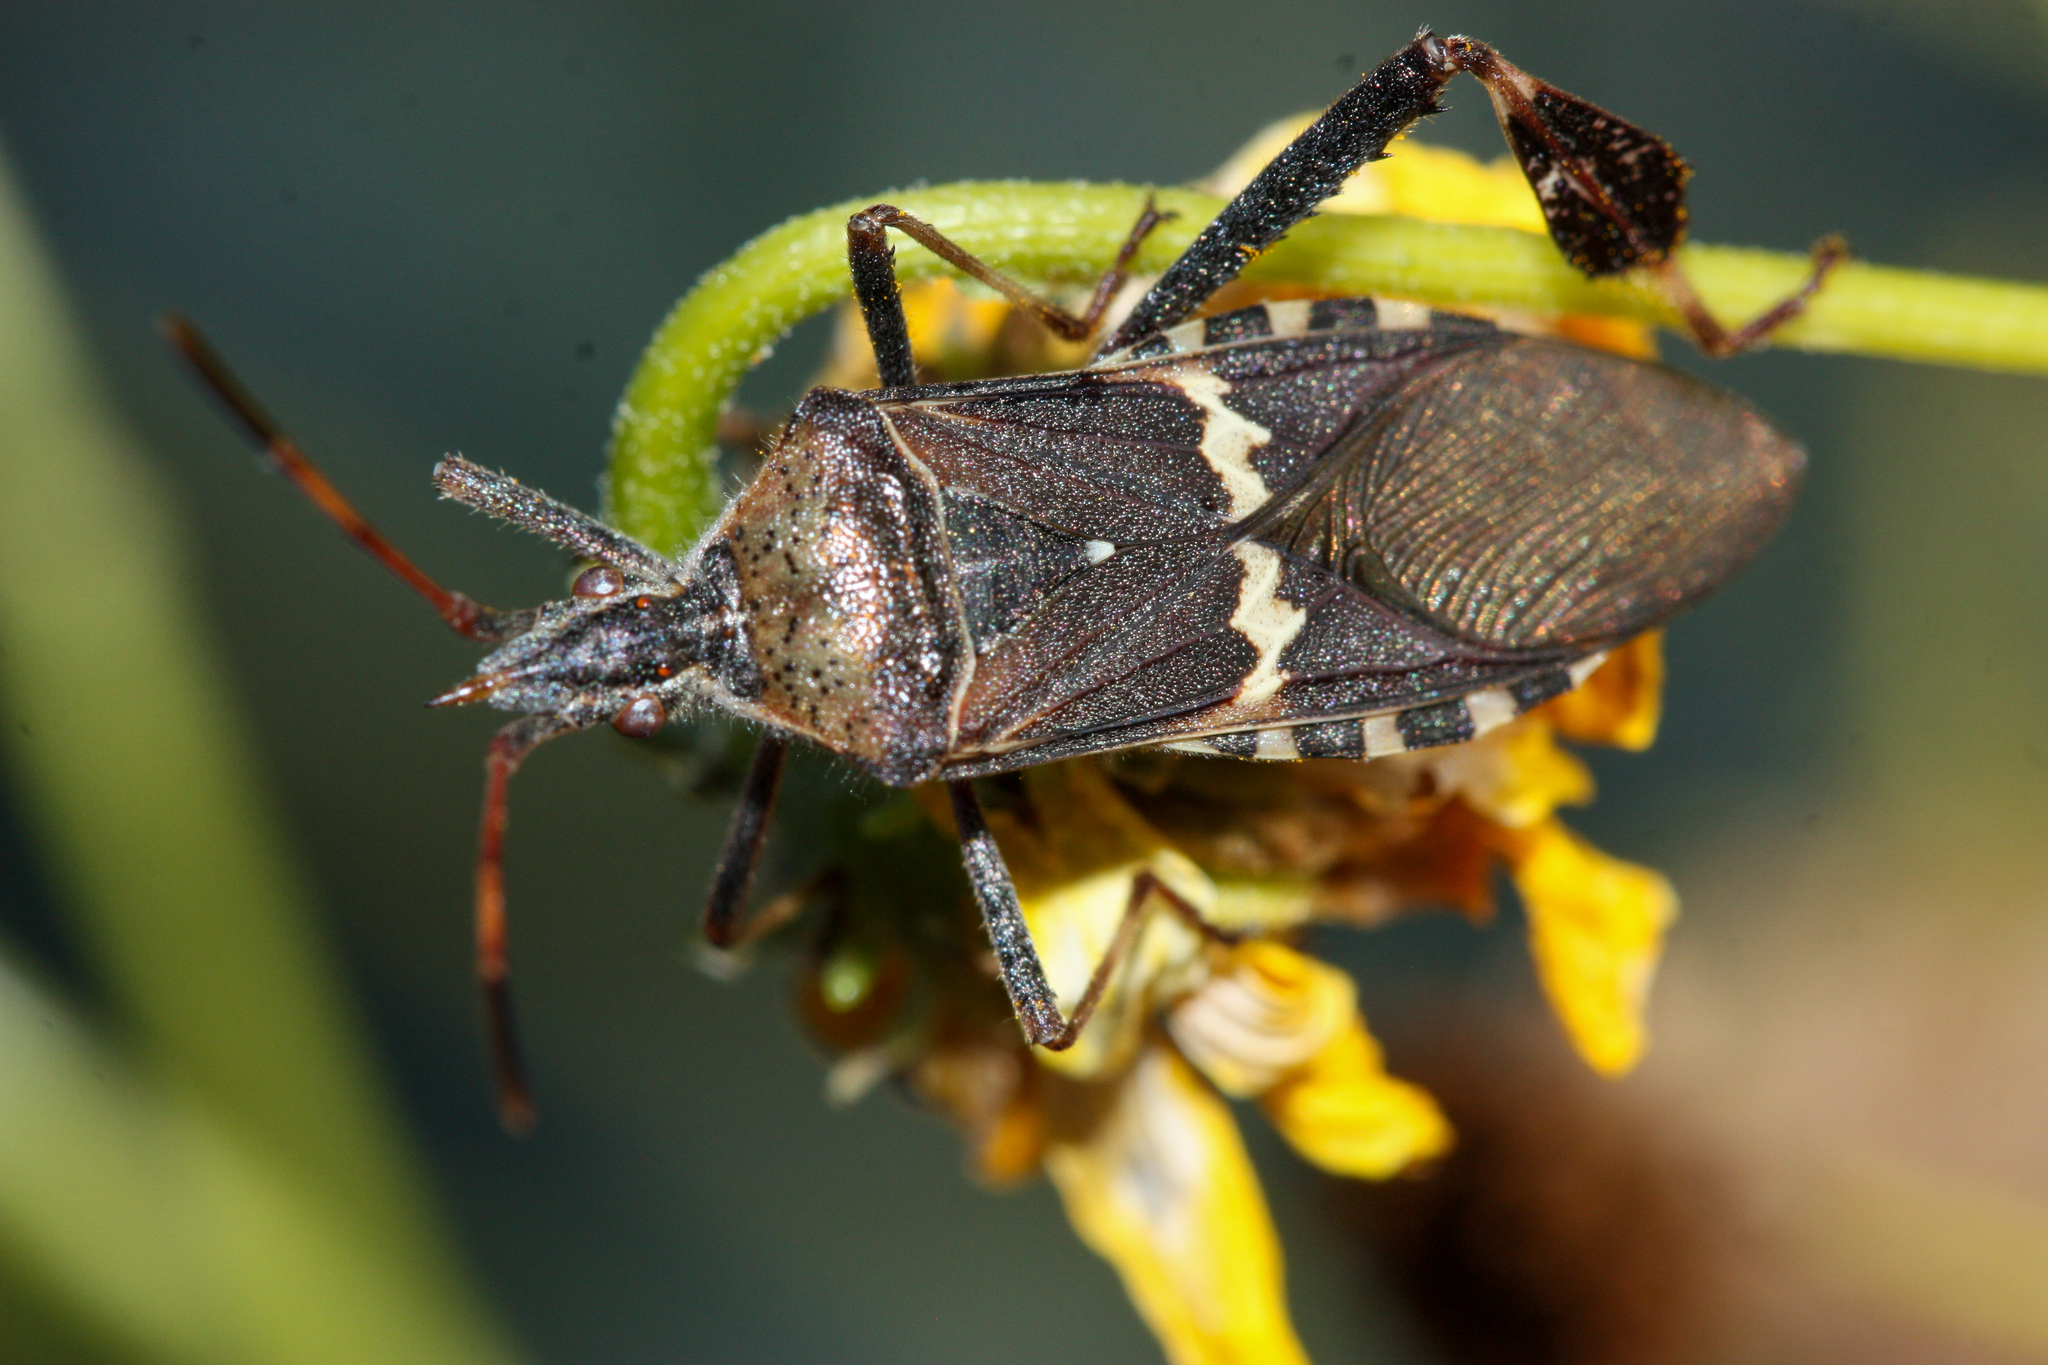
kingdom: Animalia
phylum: Arthropoda
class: Insecta
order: Hemiptera
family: Coreidae
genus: Leptoglossus
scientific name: Leptoglossus clypealis
